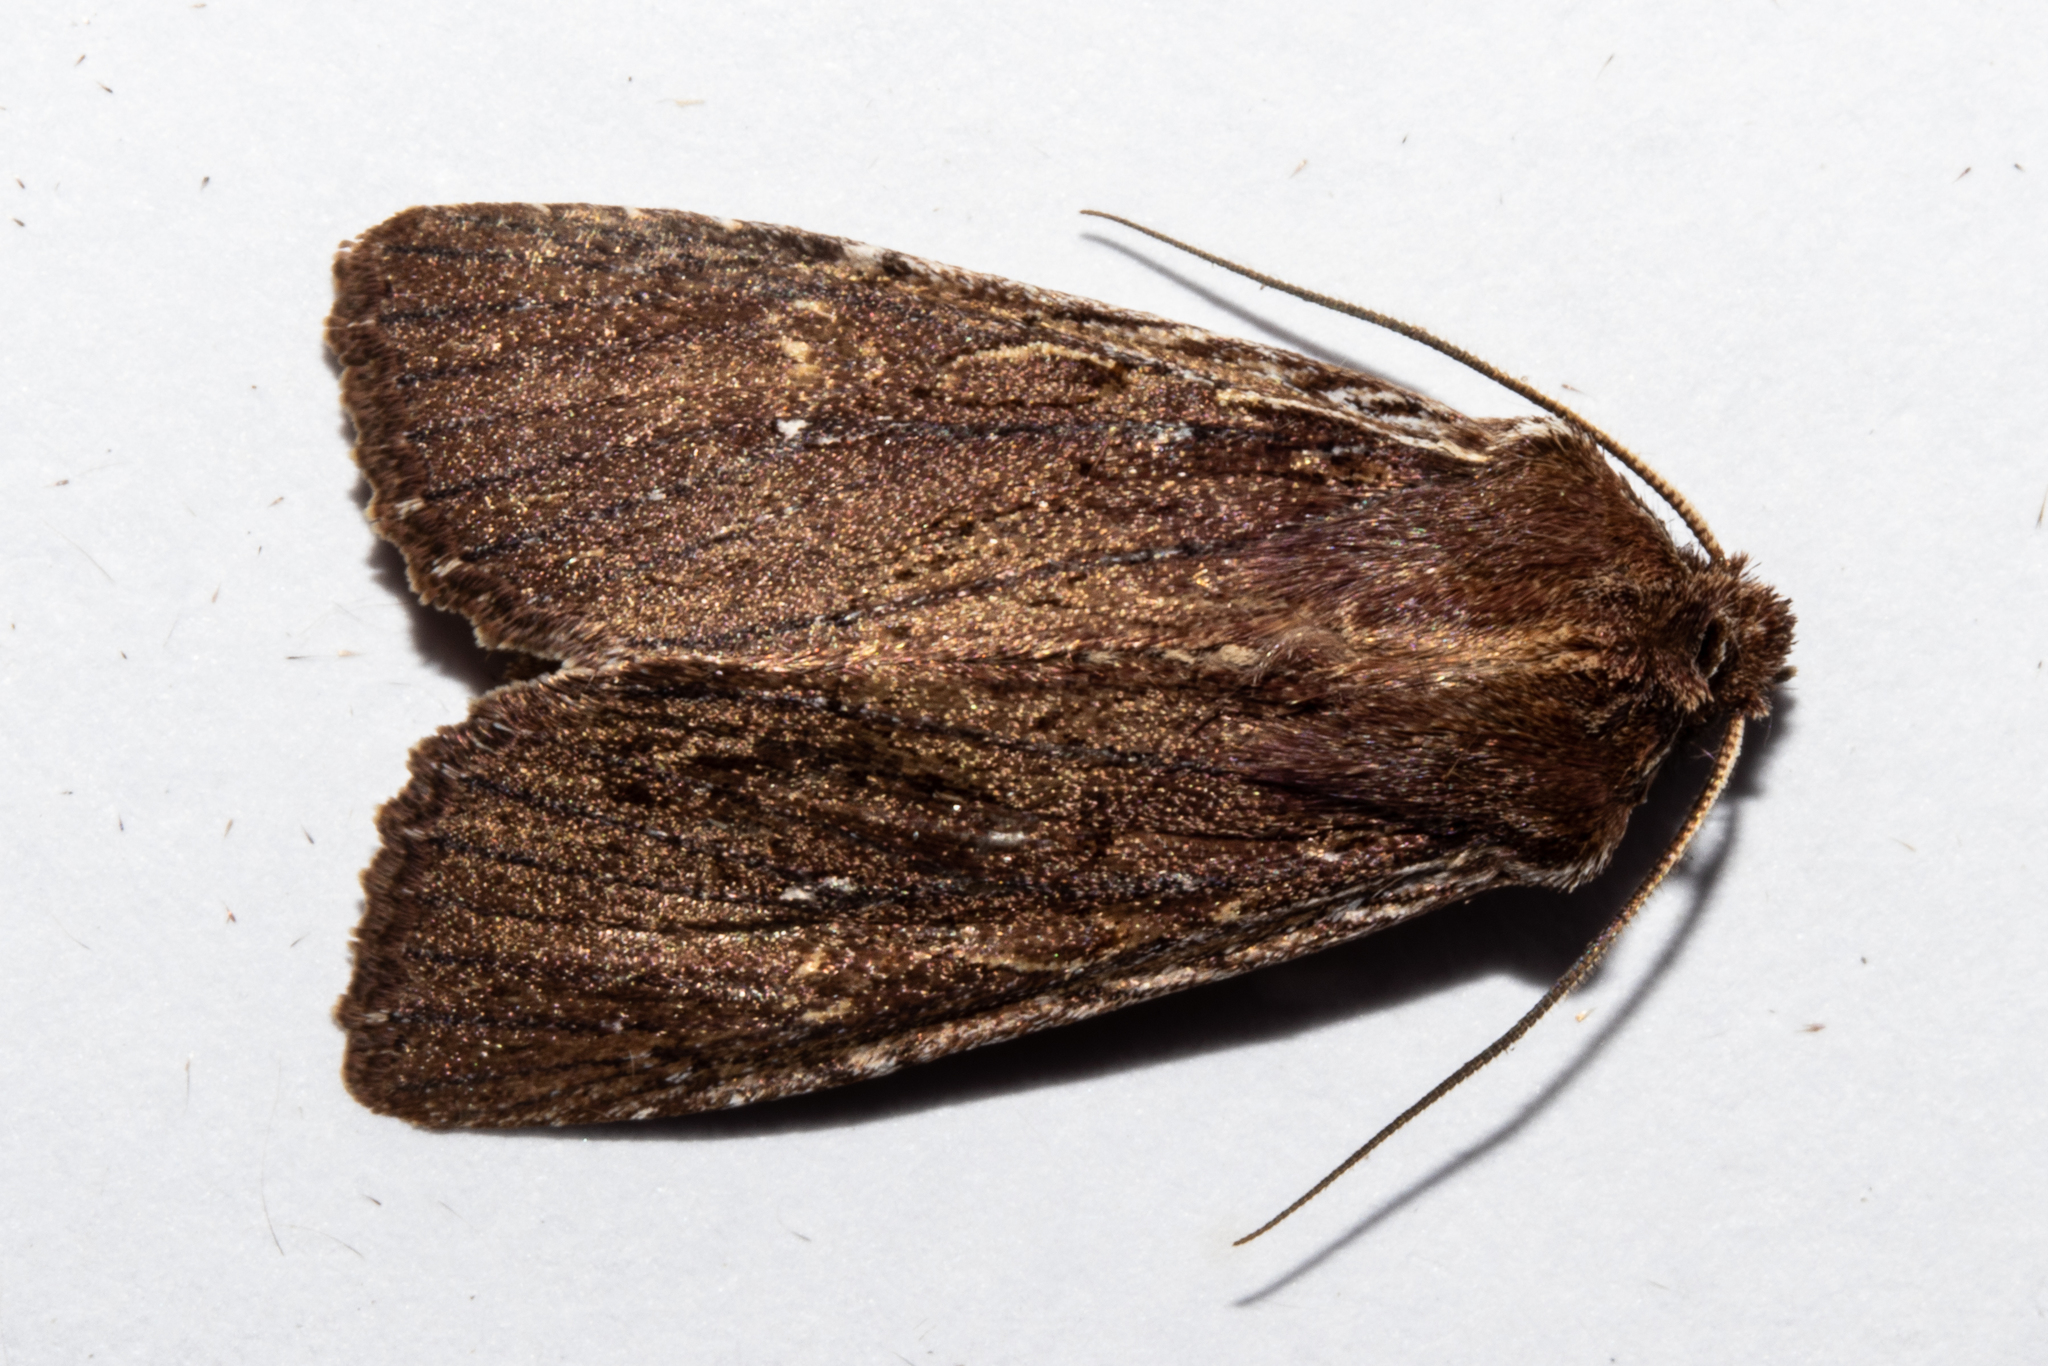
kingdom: Animalia
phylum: Arthropoda
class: Insecta
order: Lepidoptera
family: Noctuidae
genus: Ichneutica
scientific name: Ichneutica
